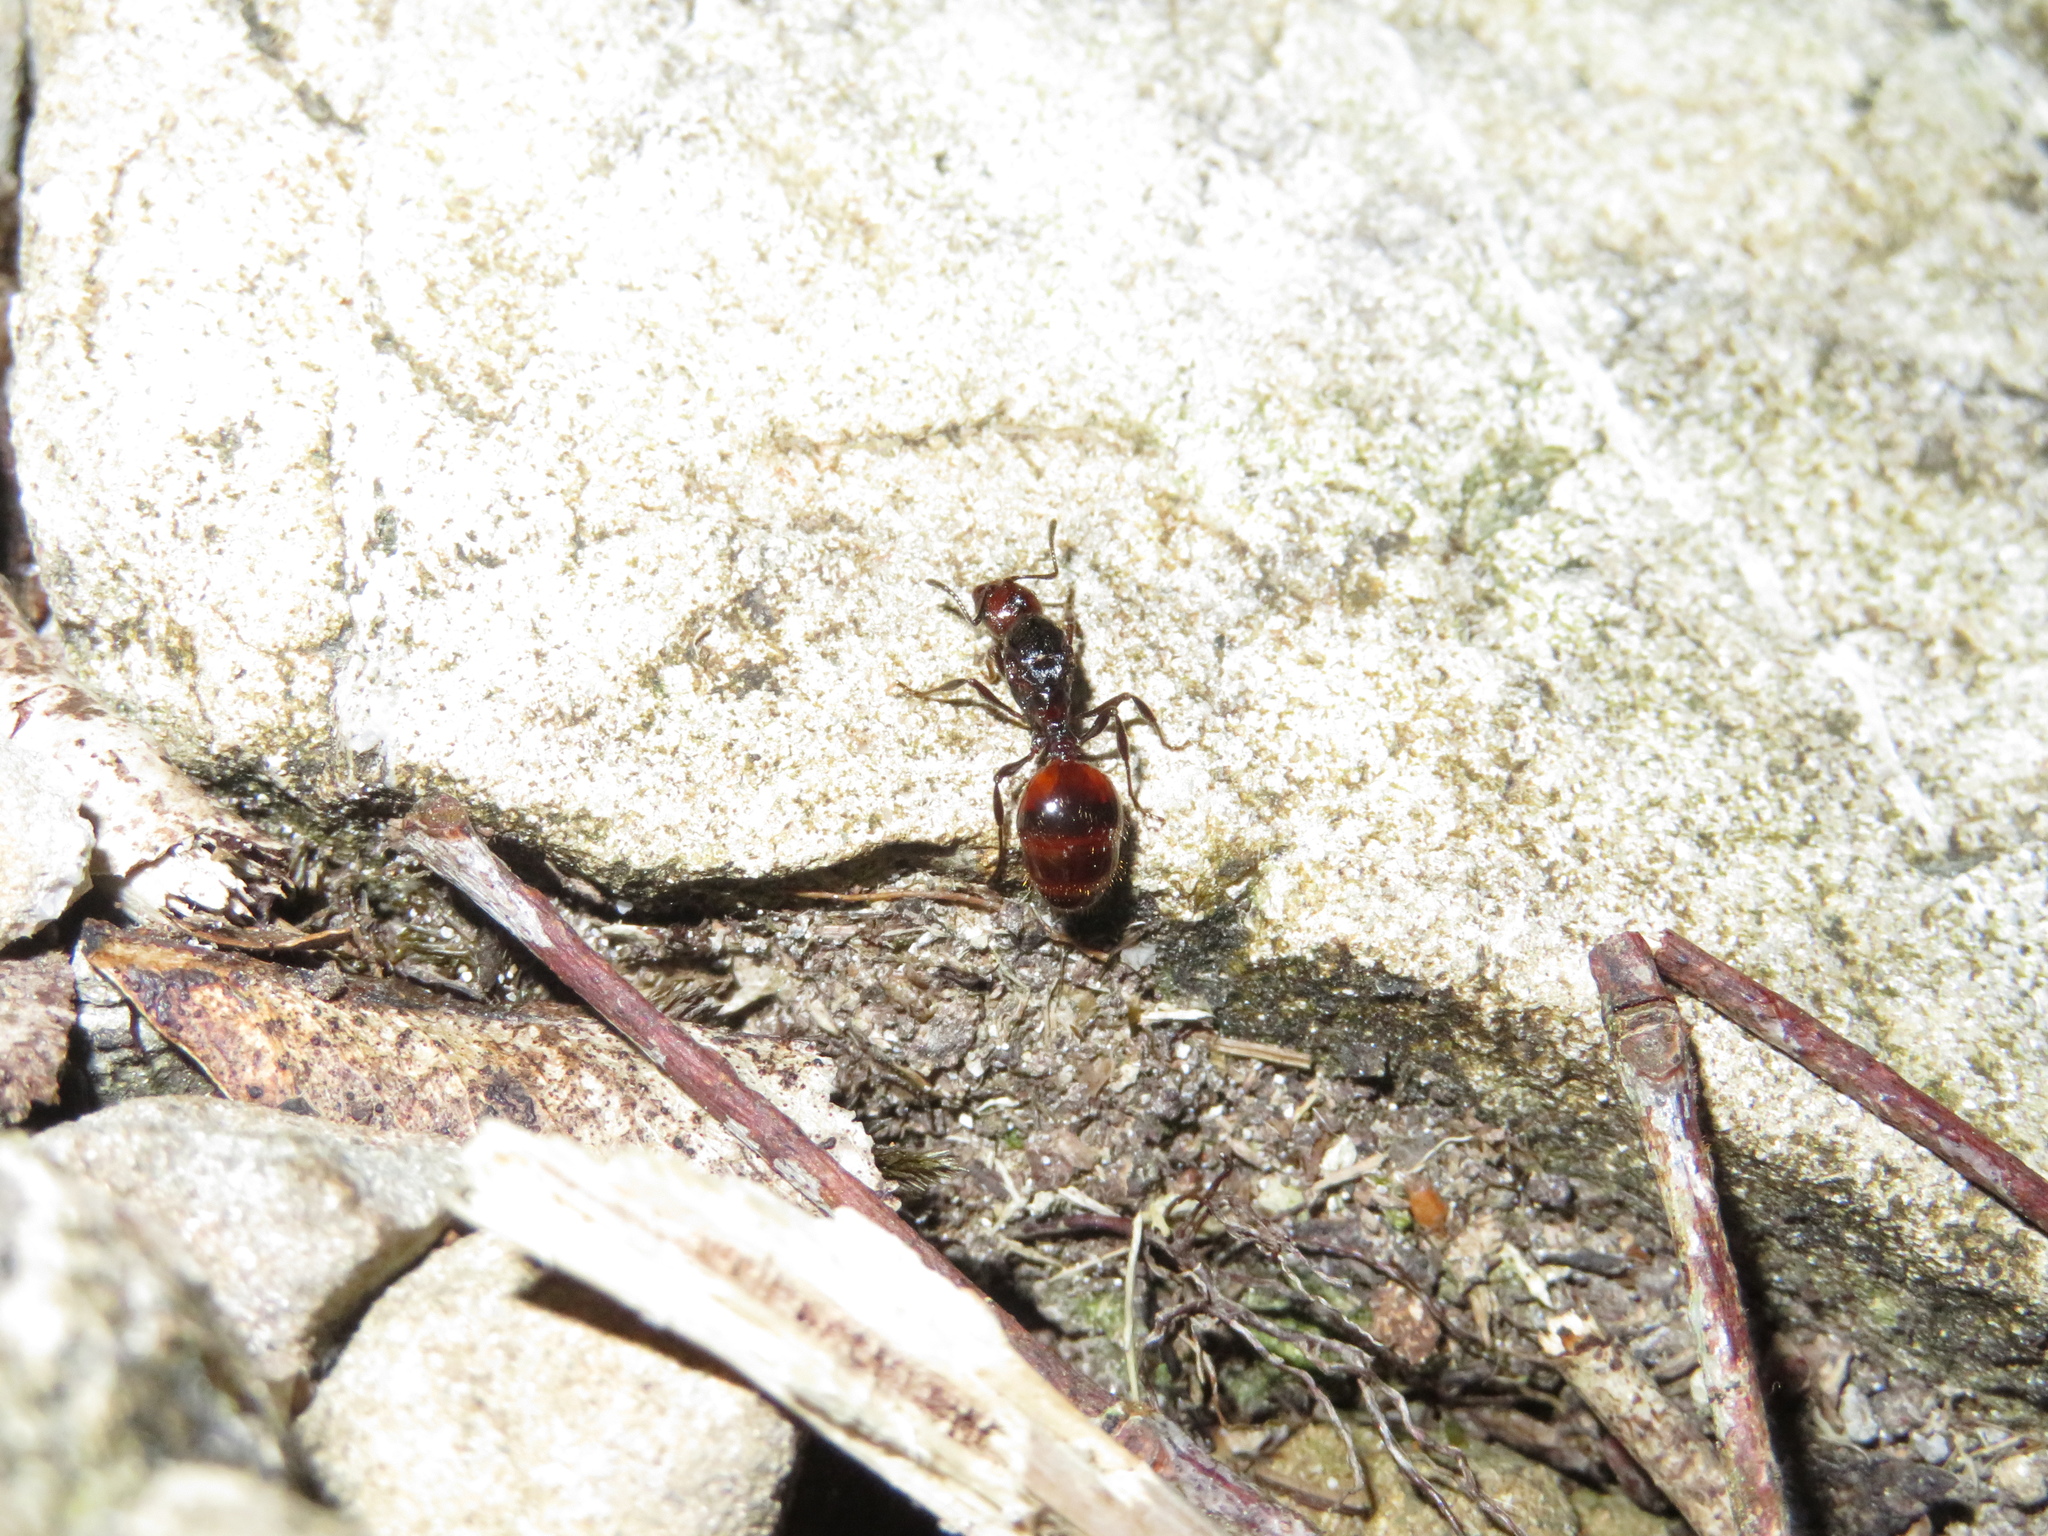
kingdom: Animalia
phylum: Arthropoda
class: Insecta
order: Hymenoptera
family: Formicidae
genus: Huberia
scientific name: Huberia striata
